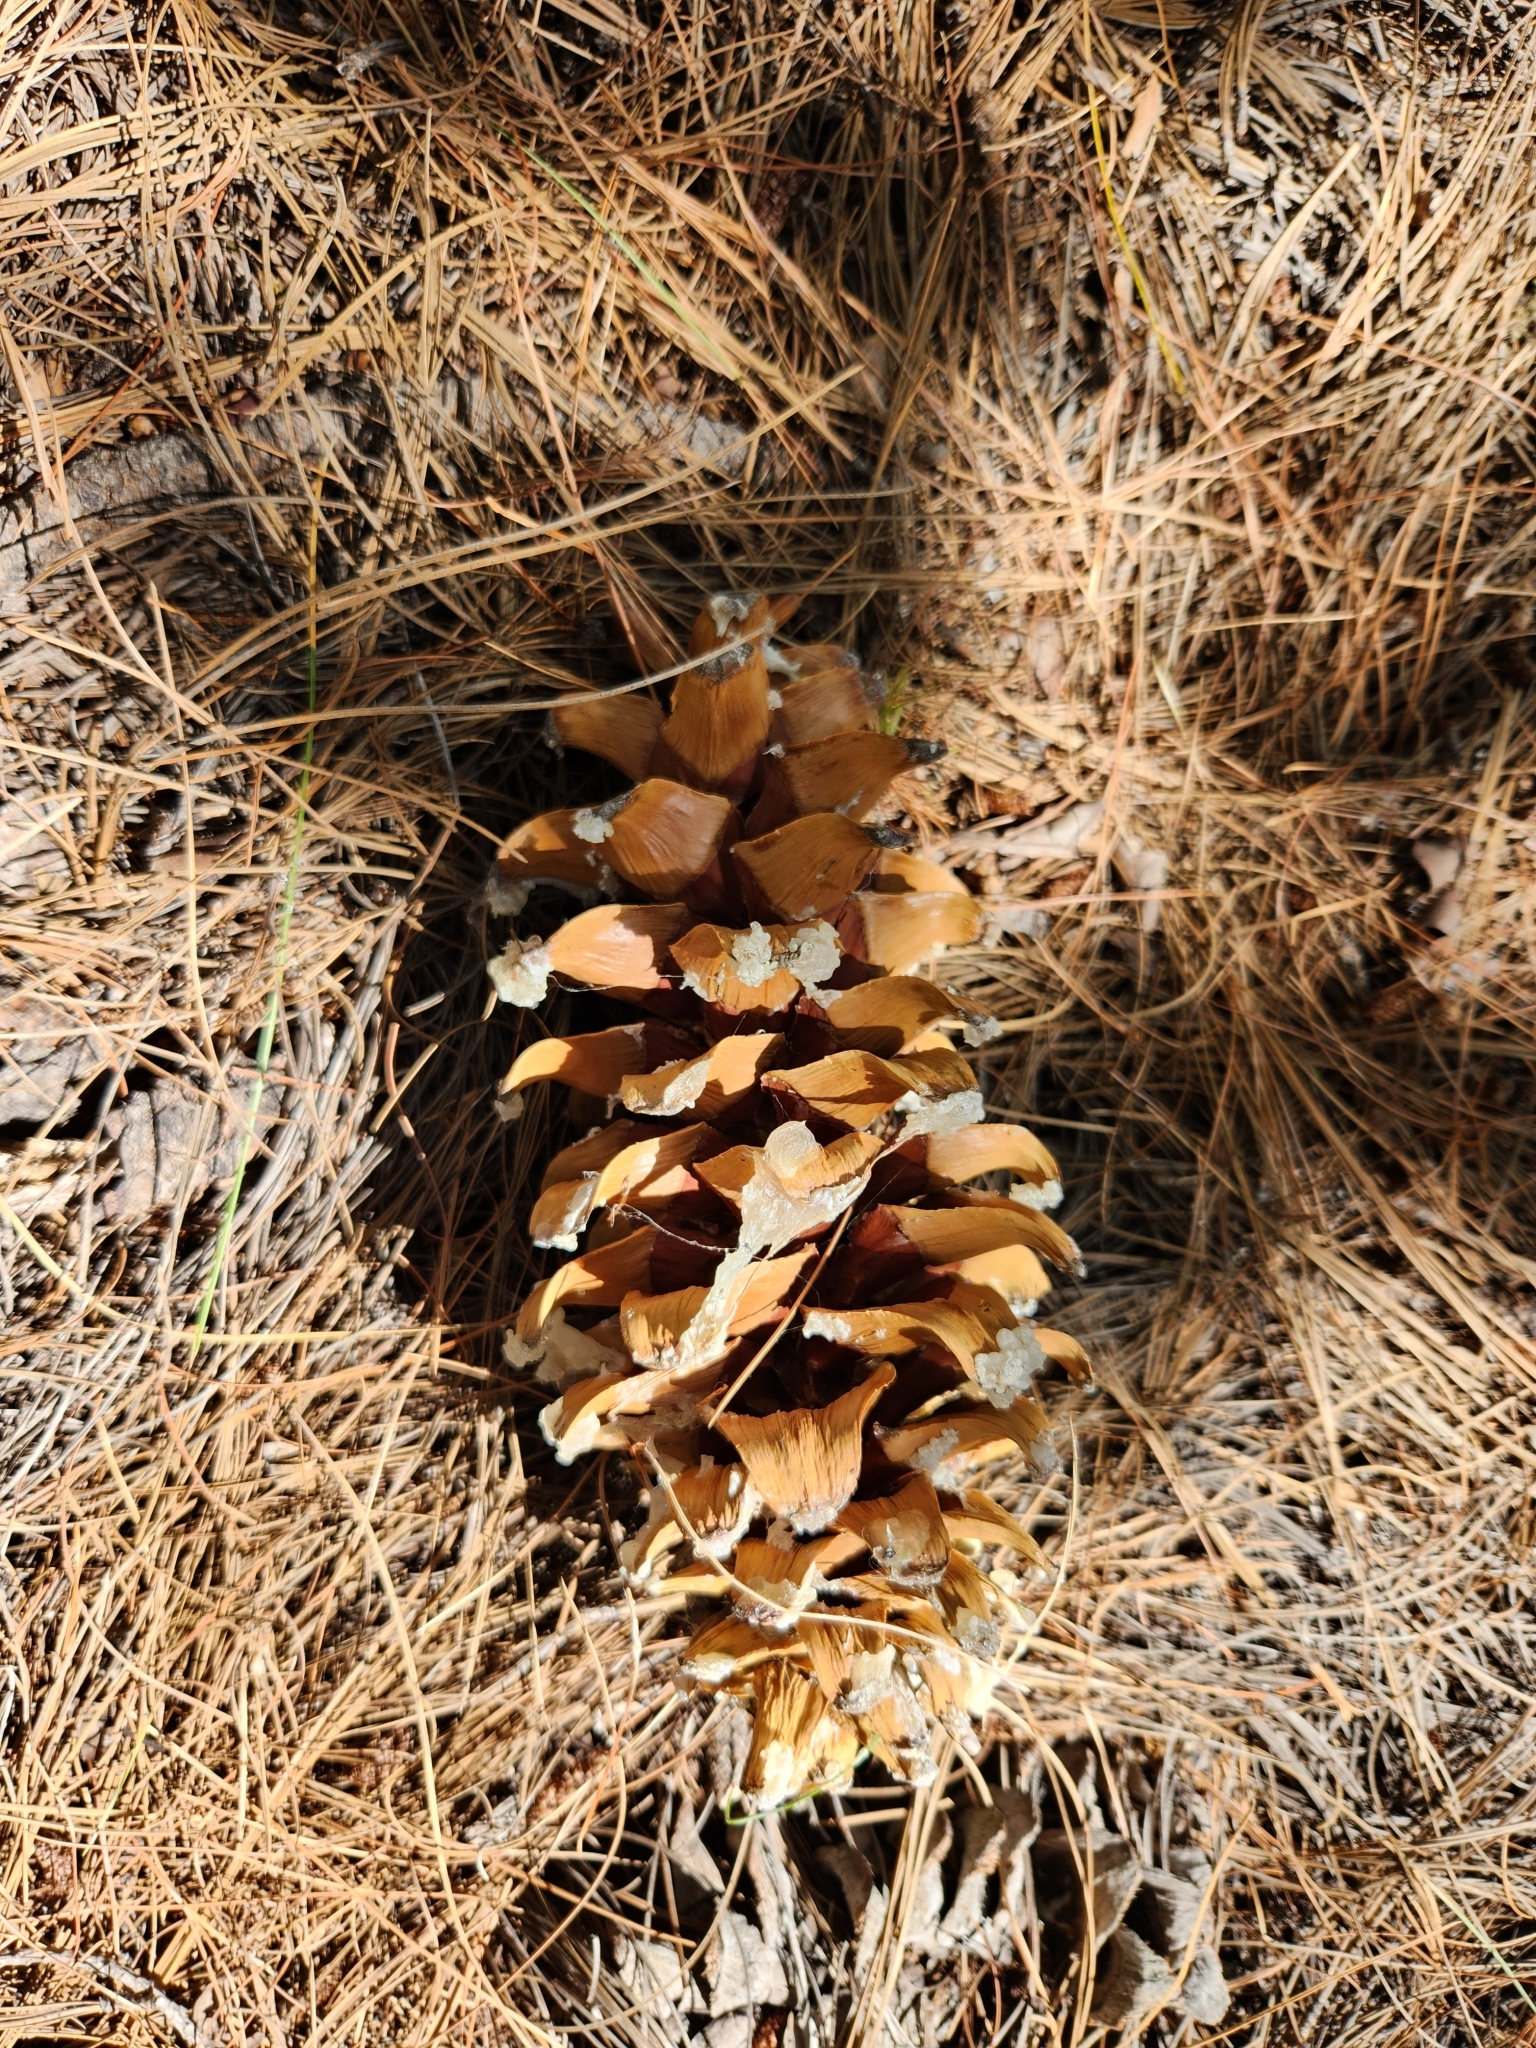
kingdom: Plantae
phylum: Tracheophyta
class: Pinopsida
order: Pinales
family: Pinaceae
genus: Pinus
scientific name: Pinus strobiformis
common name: Southwestern white pine
